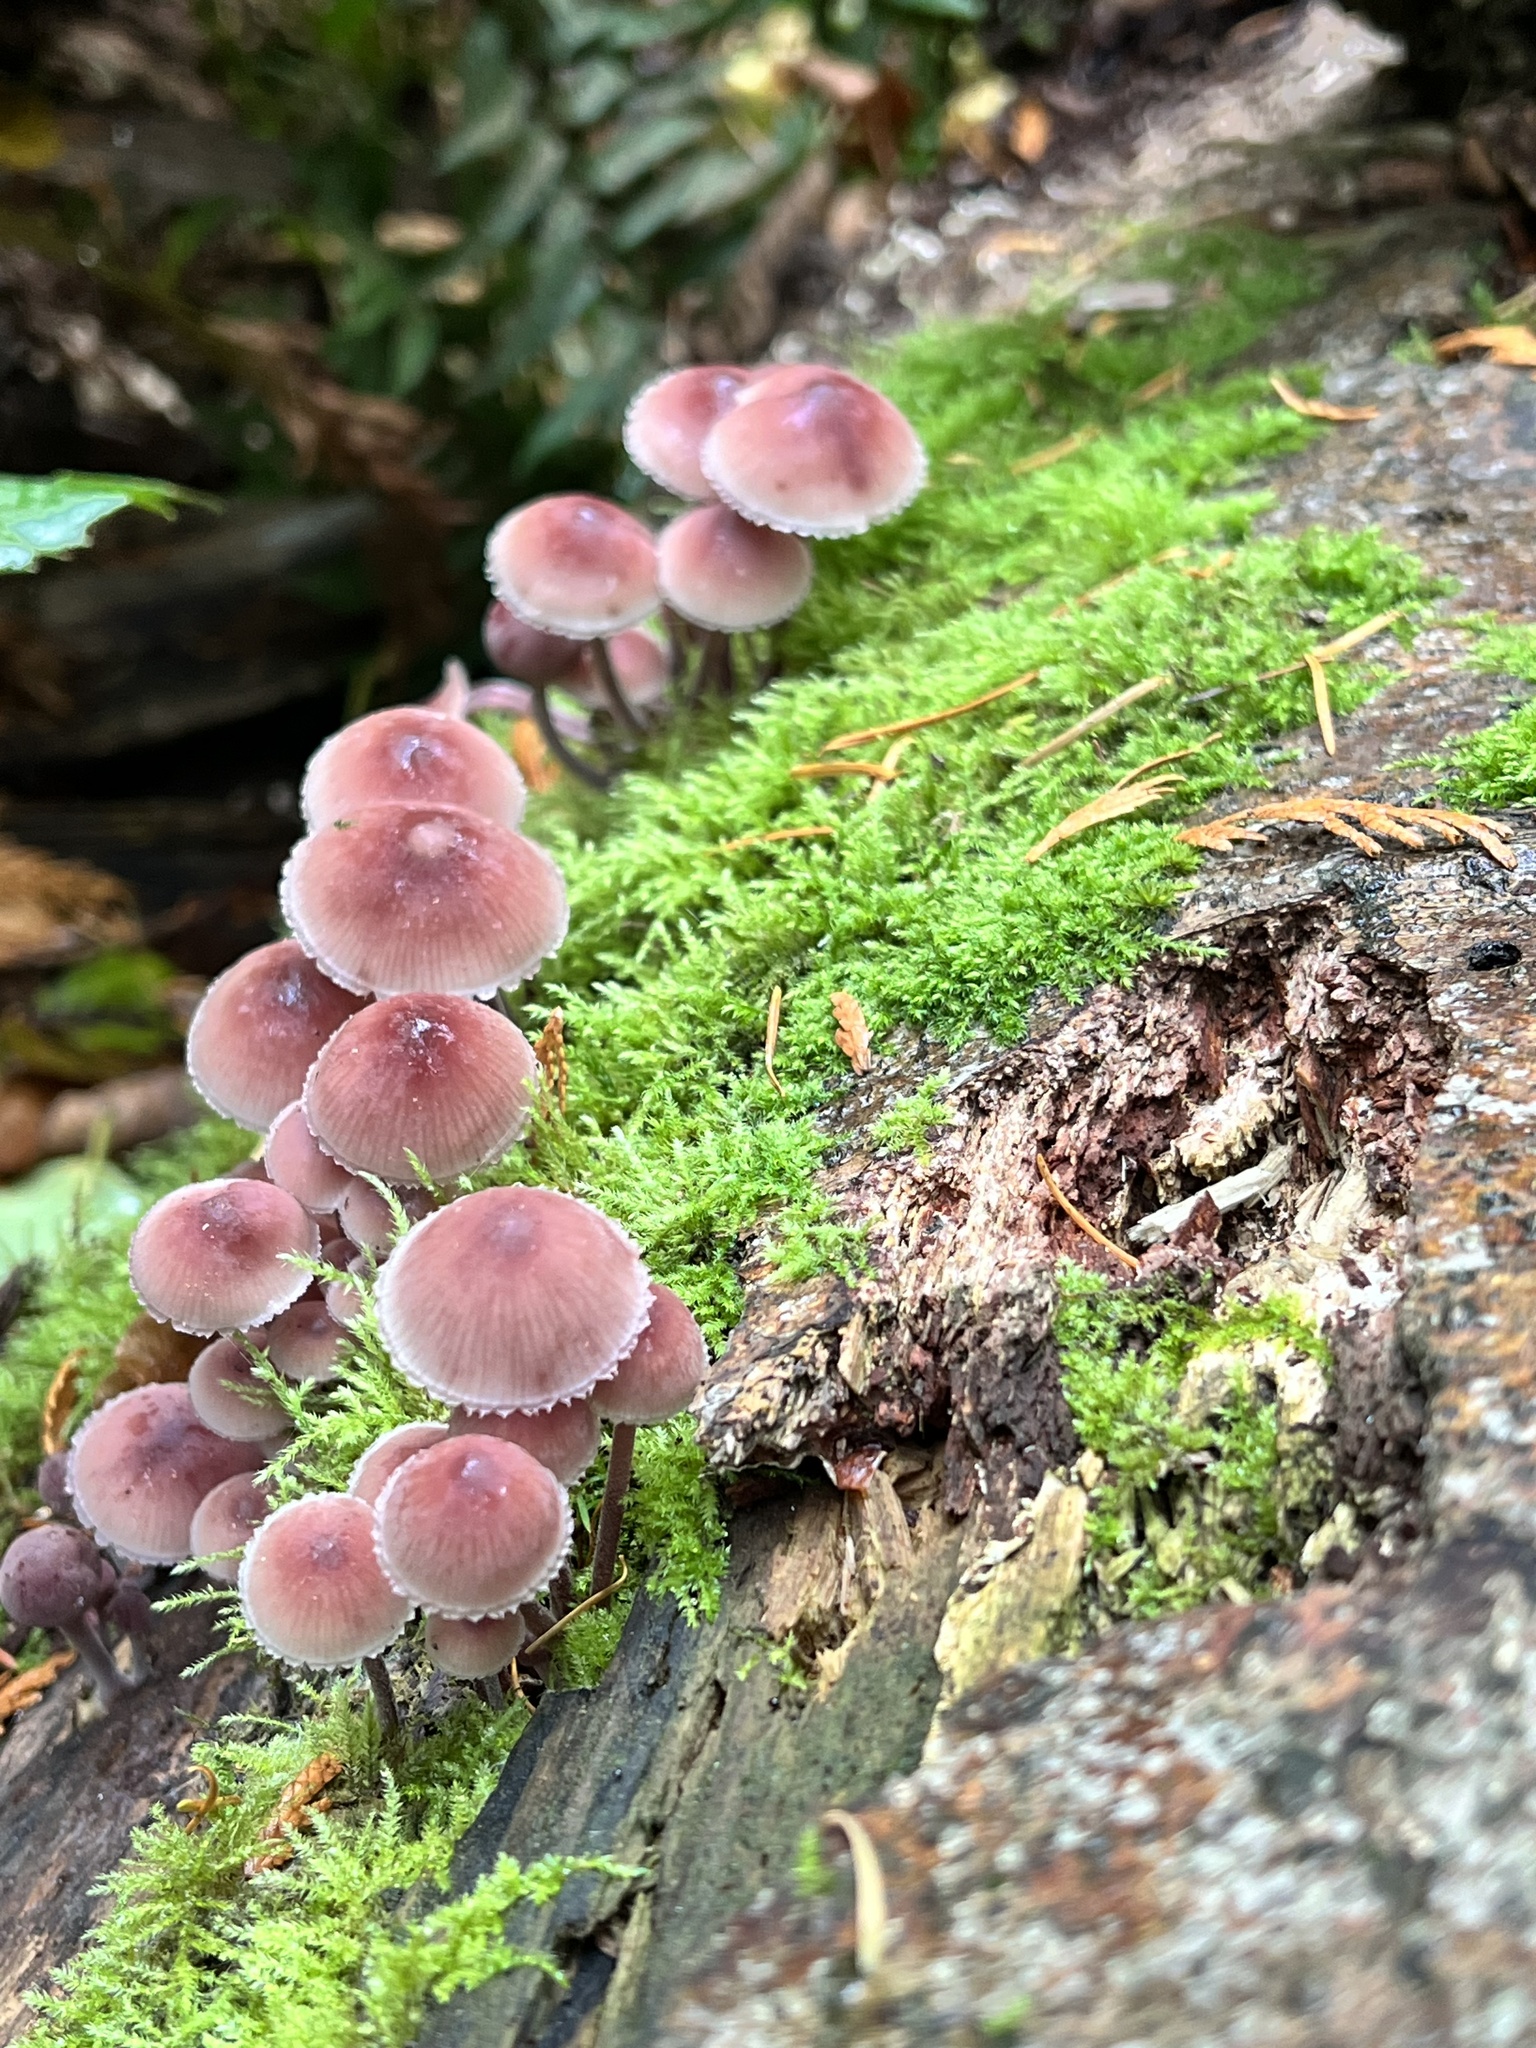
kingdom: Fungi
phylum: Basidiomycota
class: Agaricomycetes
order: Agaricales
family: Mycenaceae
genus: Mycena
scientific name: Mycena haematopus
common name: Burgundydrop bonnet
